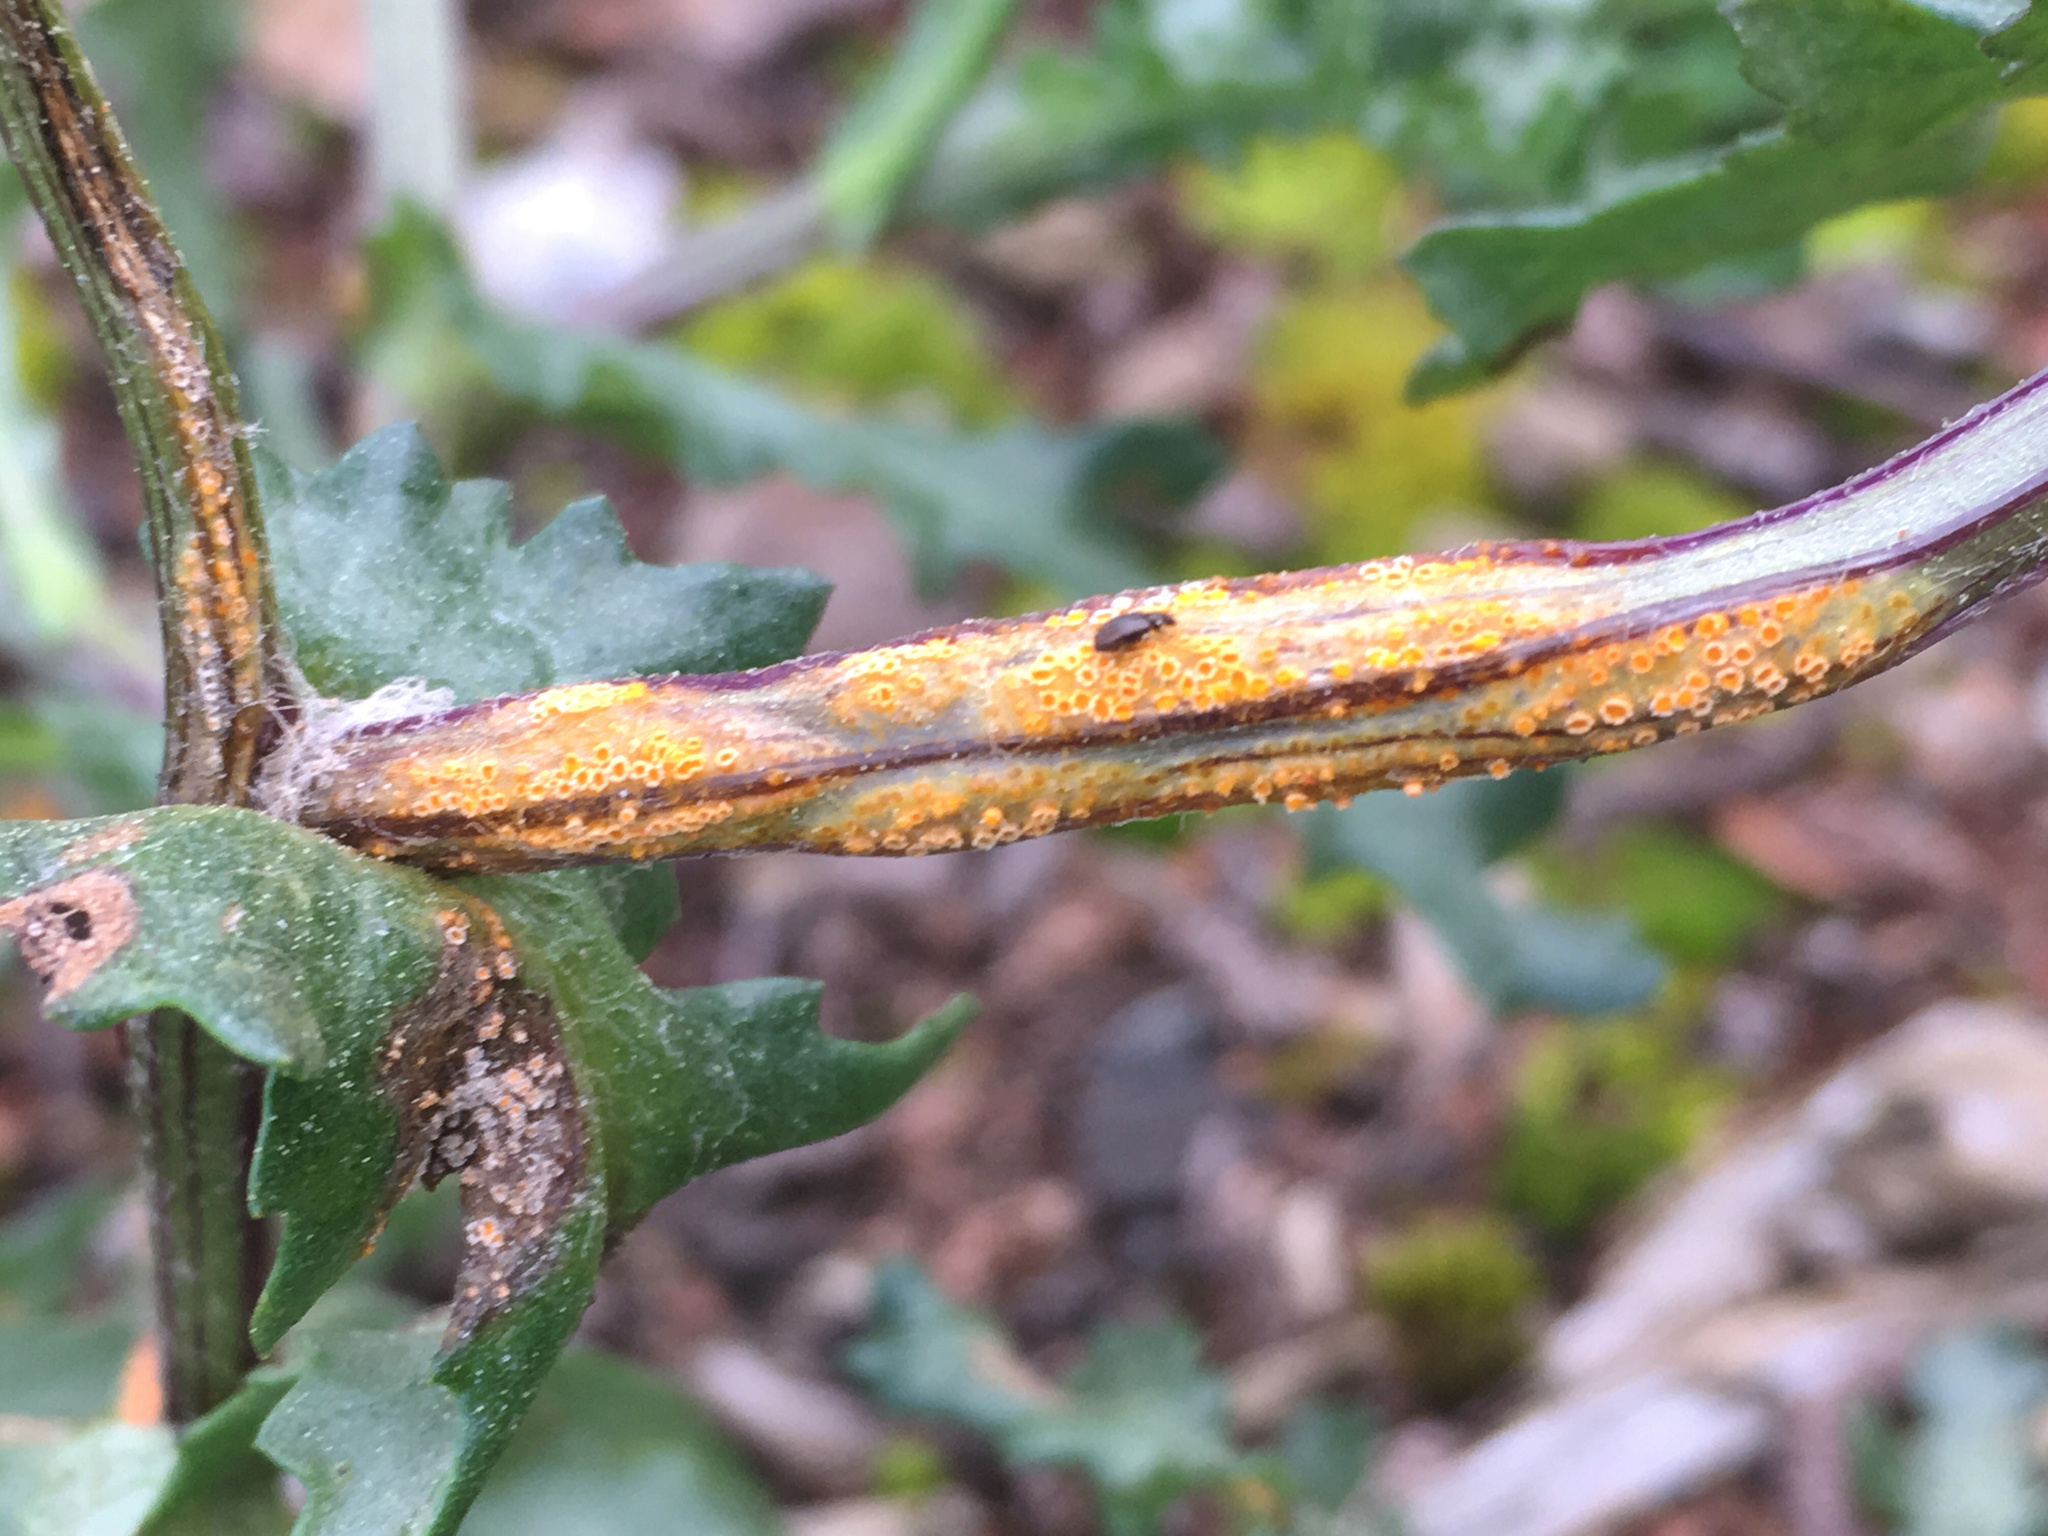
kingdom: Fungi
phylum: Basidiomycota
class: Pucciniomycetes
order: Pucciniales
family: Pucciniaceae
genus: Puccinia
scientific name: Puccinia lagenophorae
